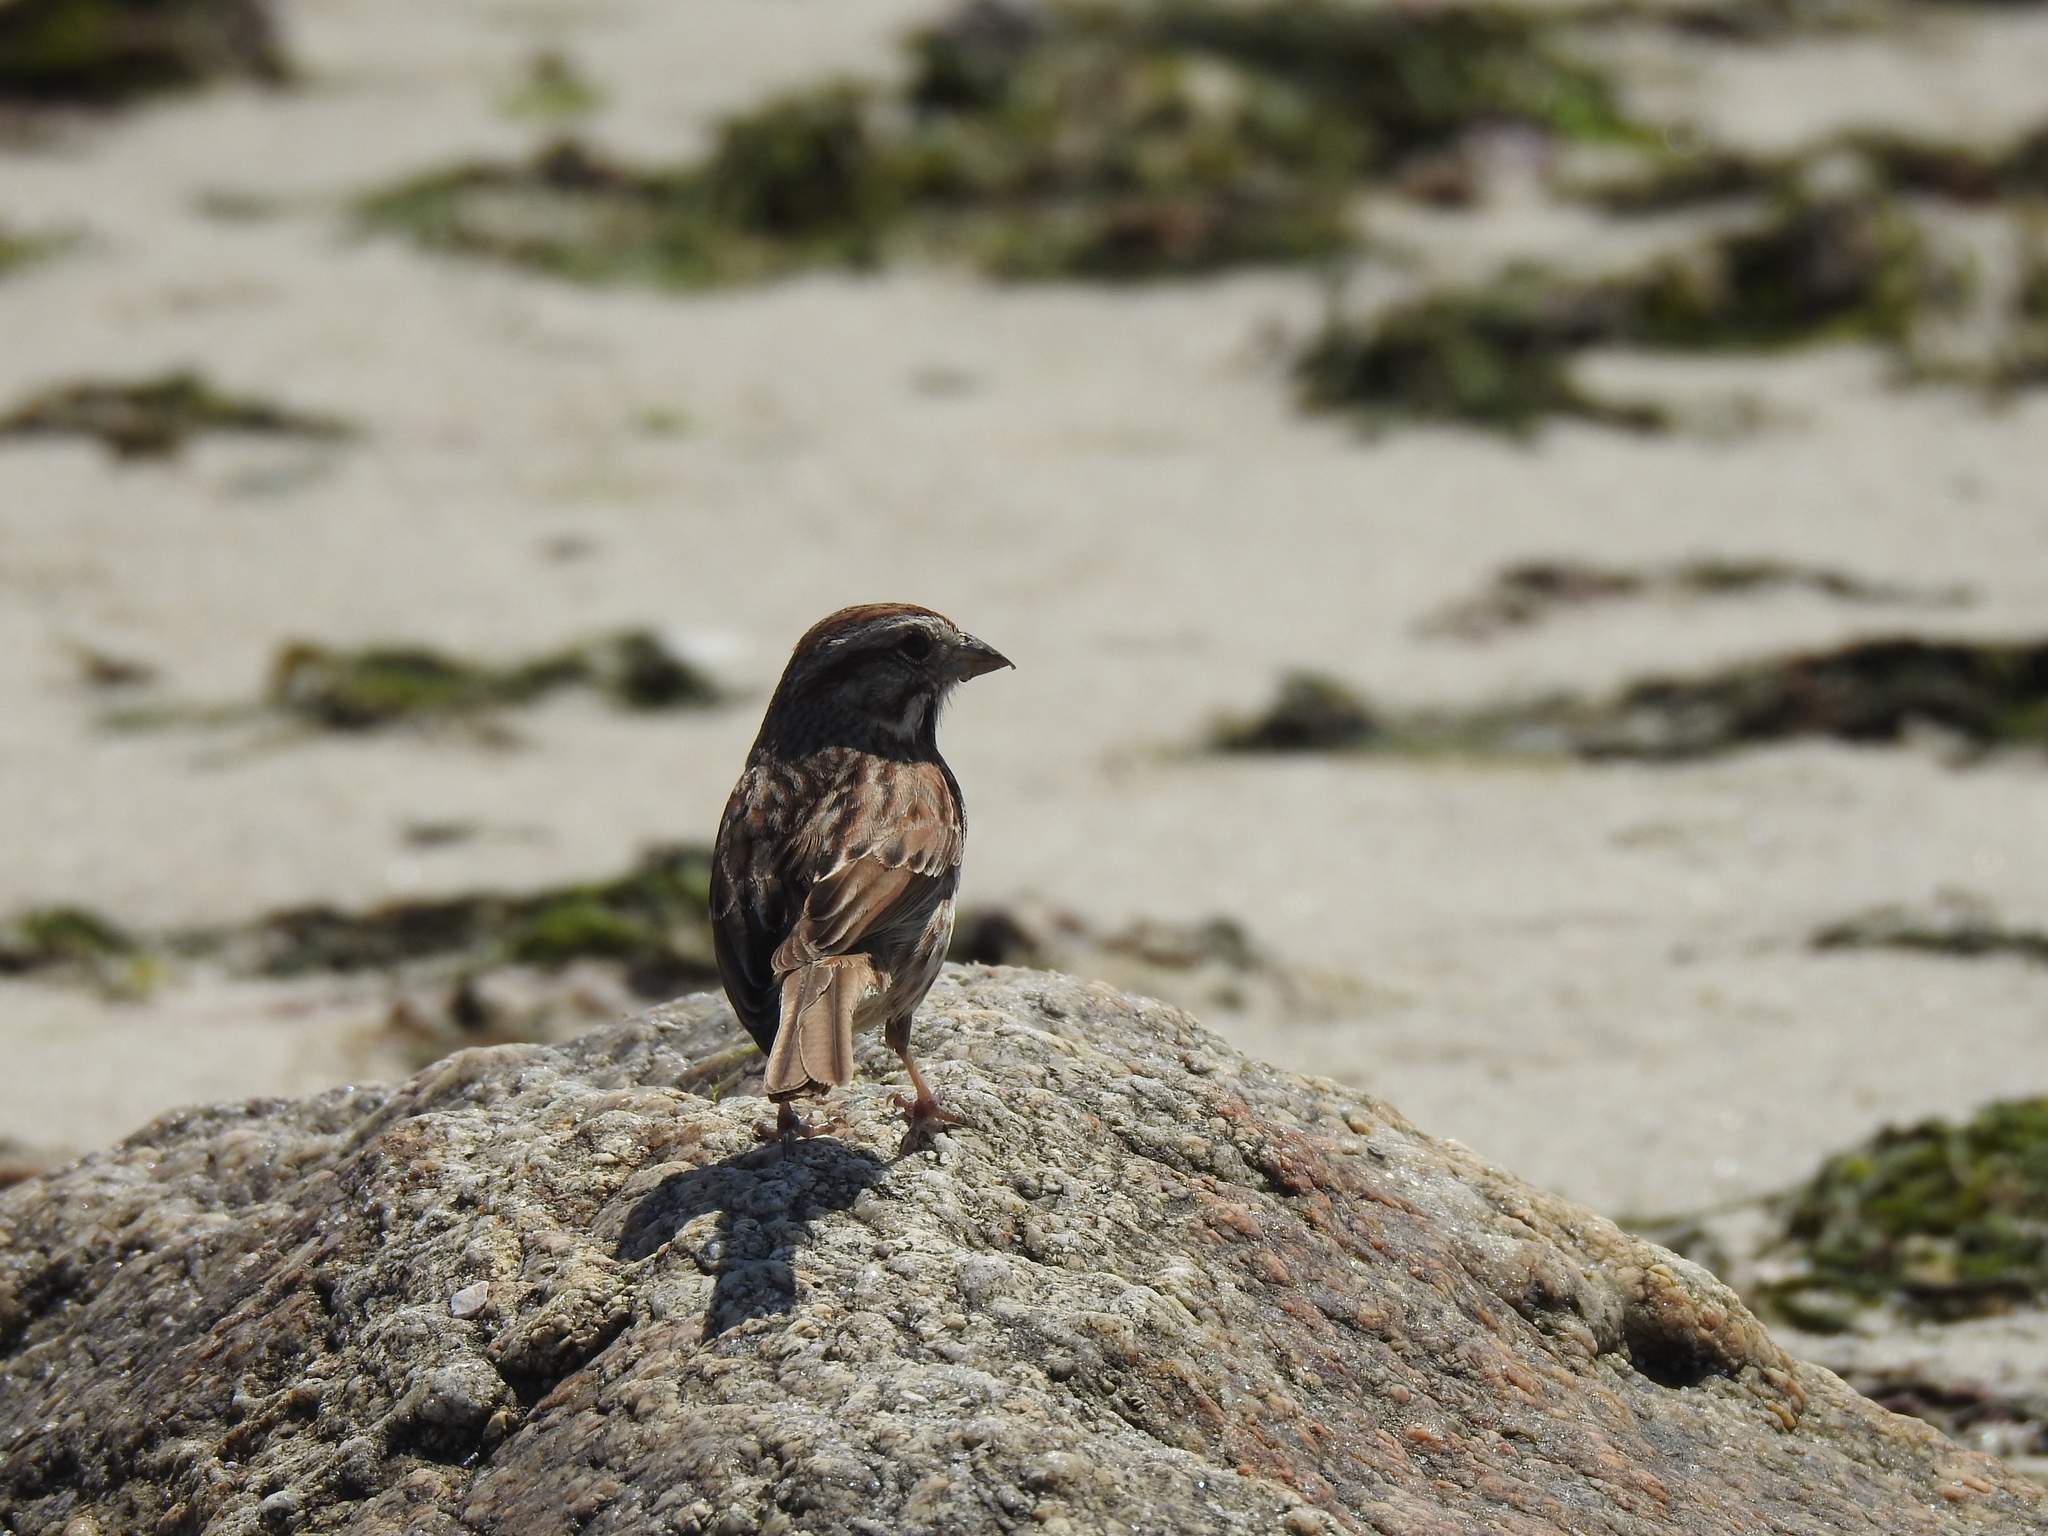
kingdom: Animalia
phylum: Chordata
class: Aves
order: Passeriformes
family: Passerellidae
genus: Melospiza
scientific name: Melospiza melodia
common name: Song sparrow
